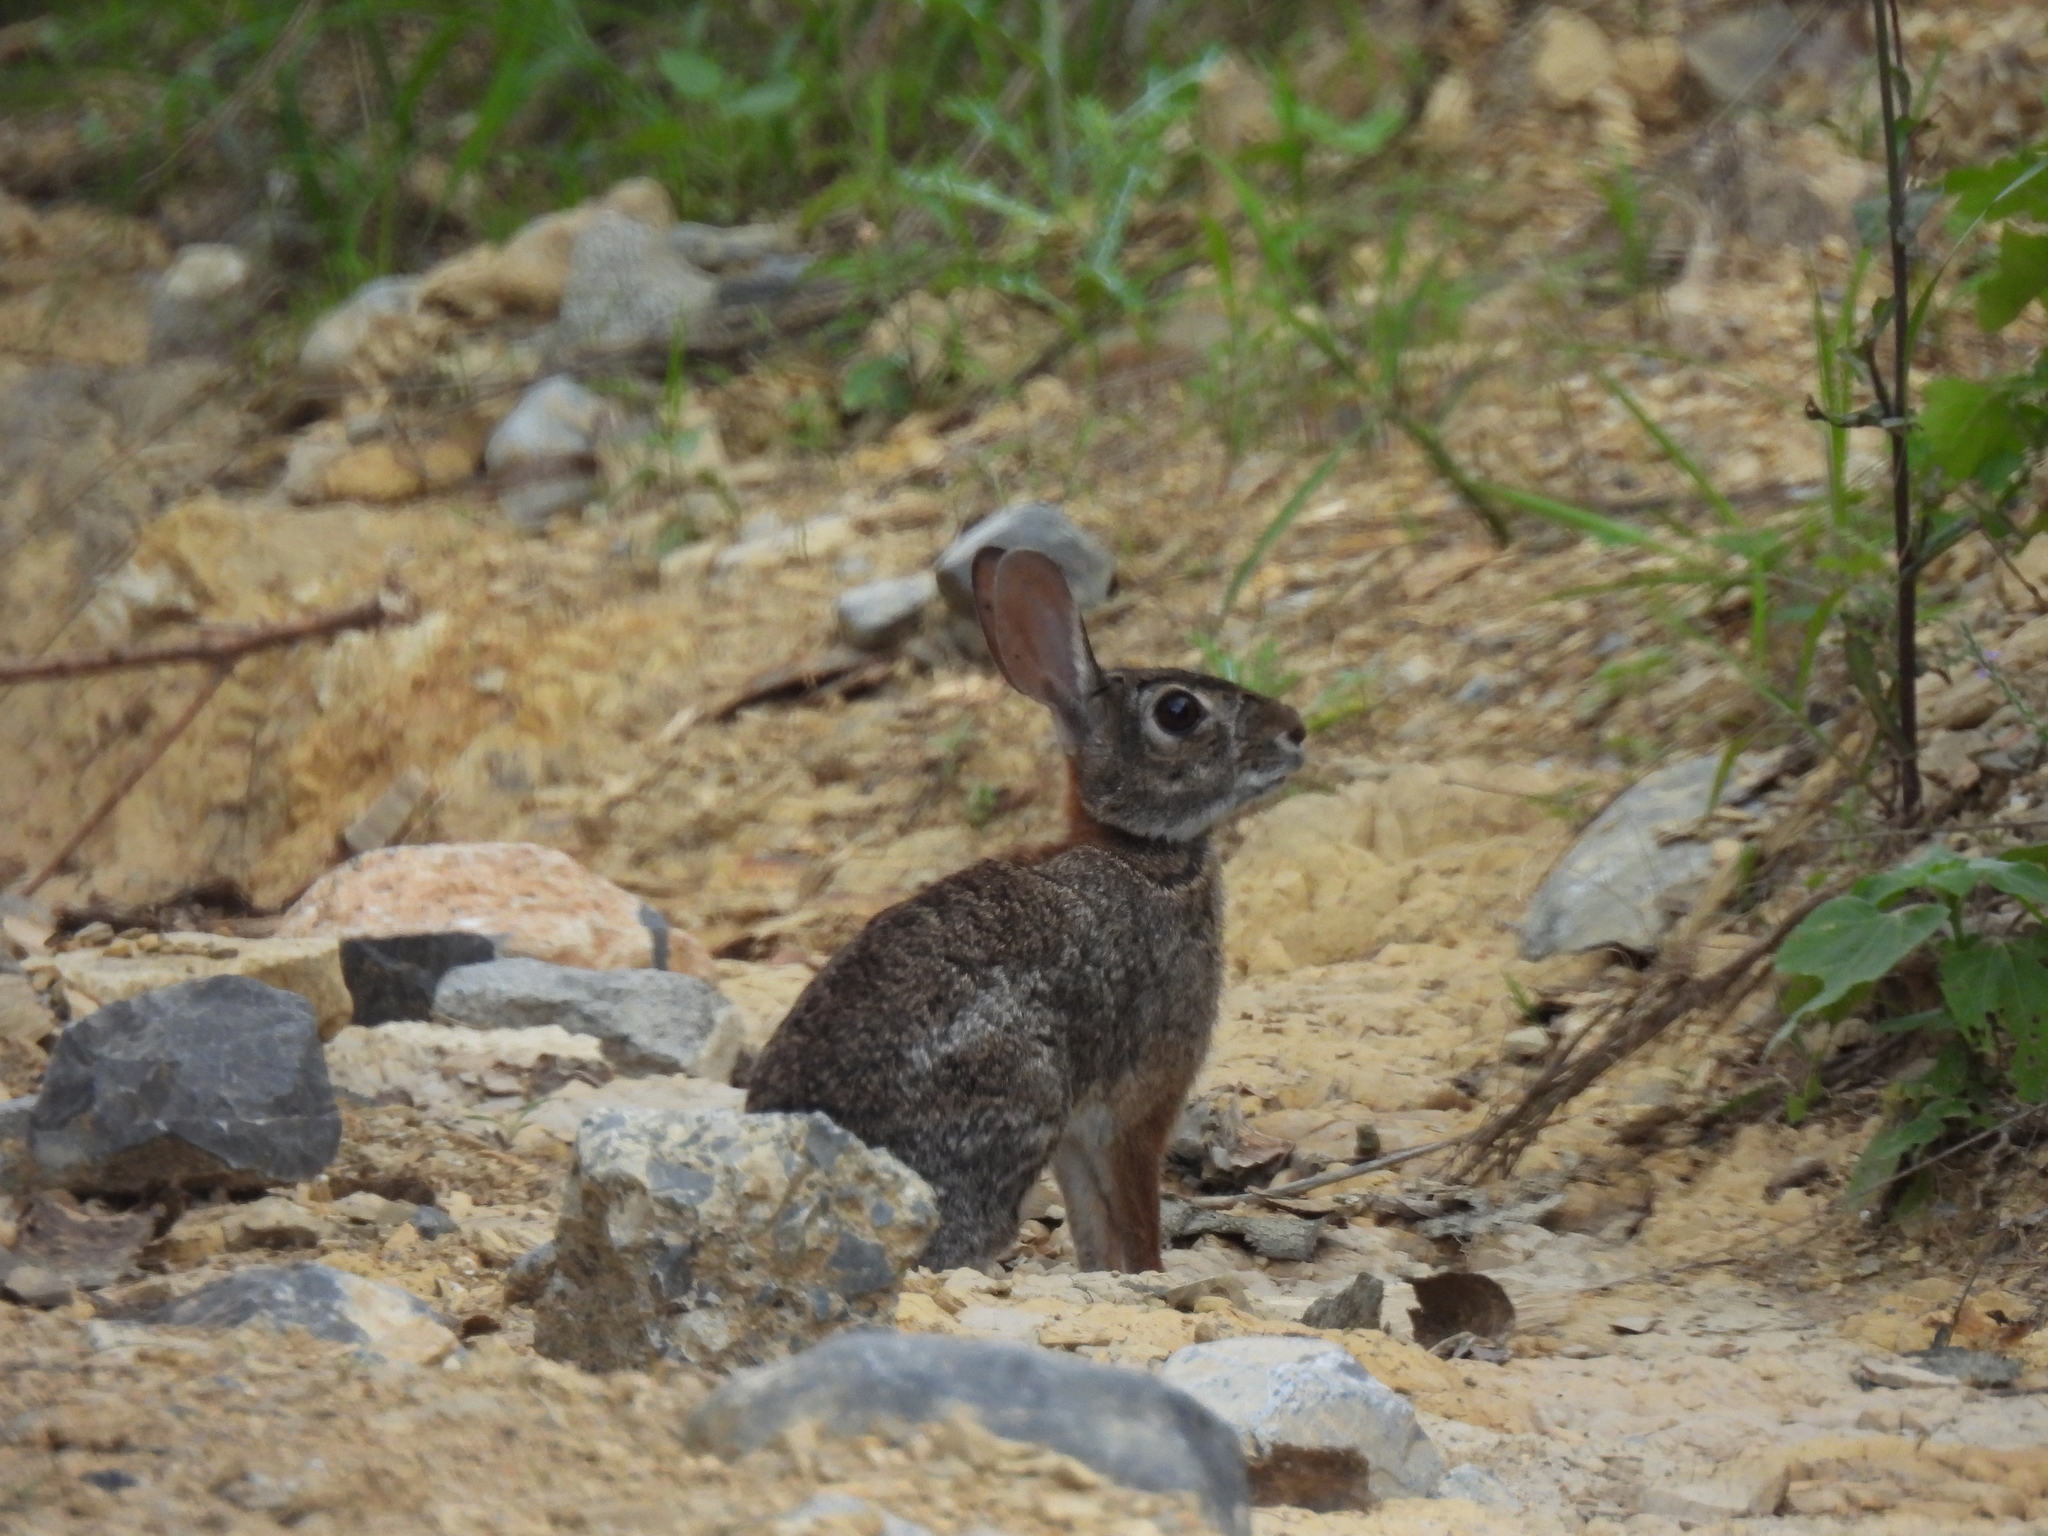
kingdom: Animalia
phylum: Chordata
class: Mammalia
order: Lagomorpha
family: Leporidae
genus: Sylvilagus
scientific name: Sylvilagus floridanus
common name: Eastern cottontail
